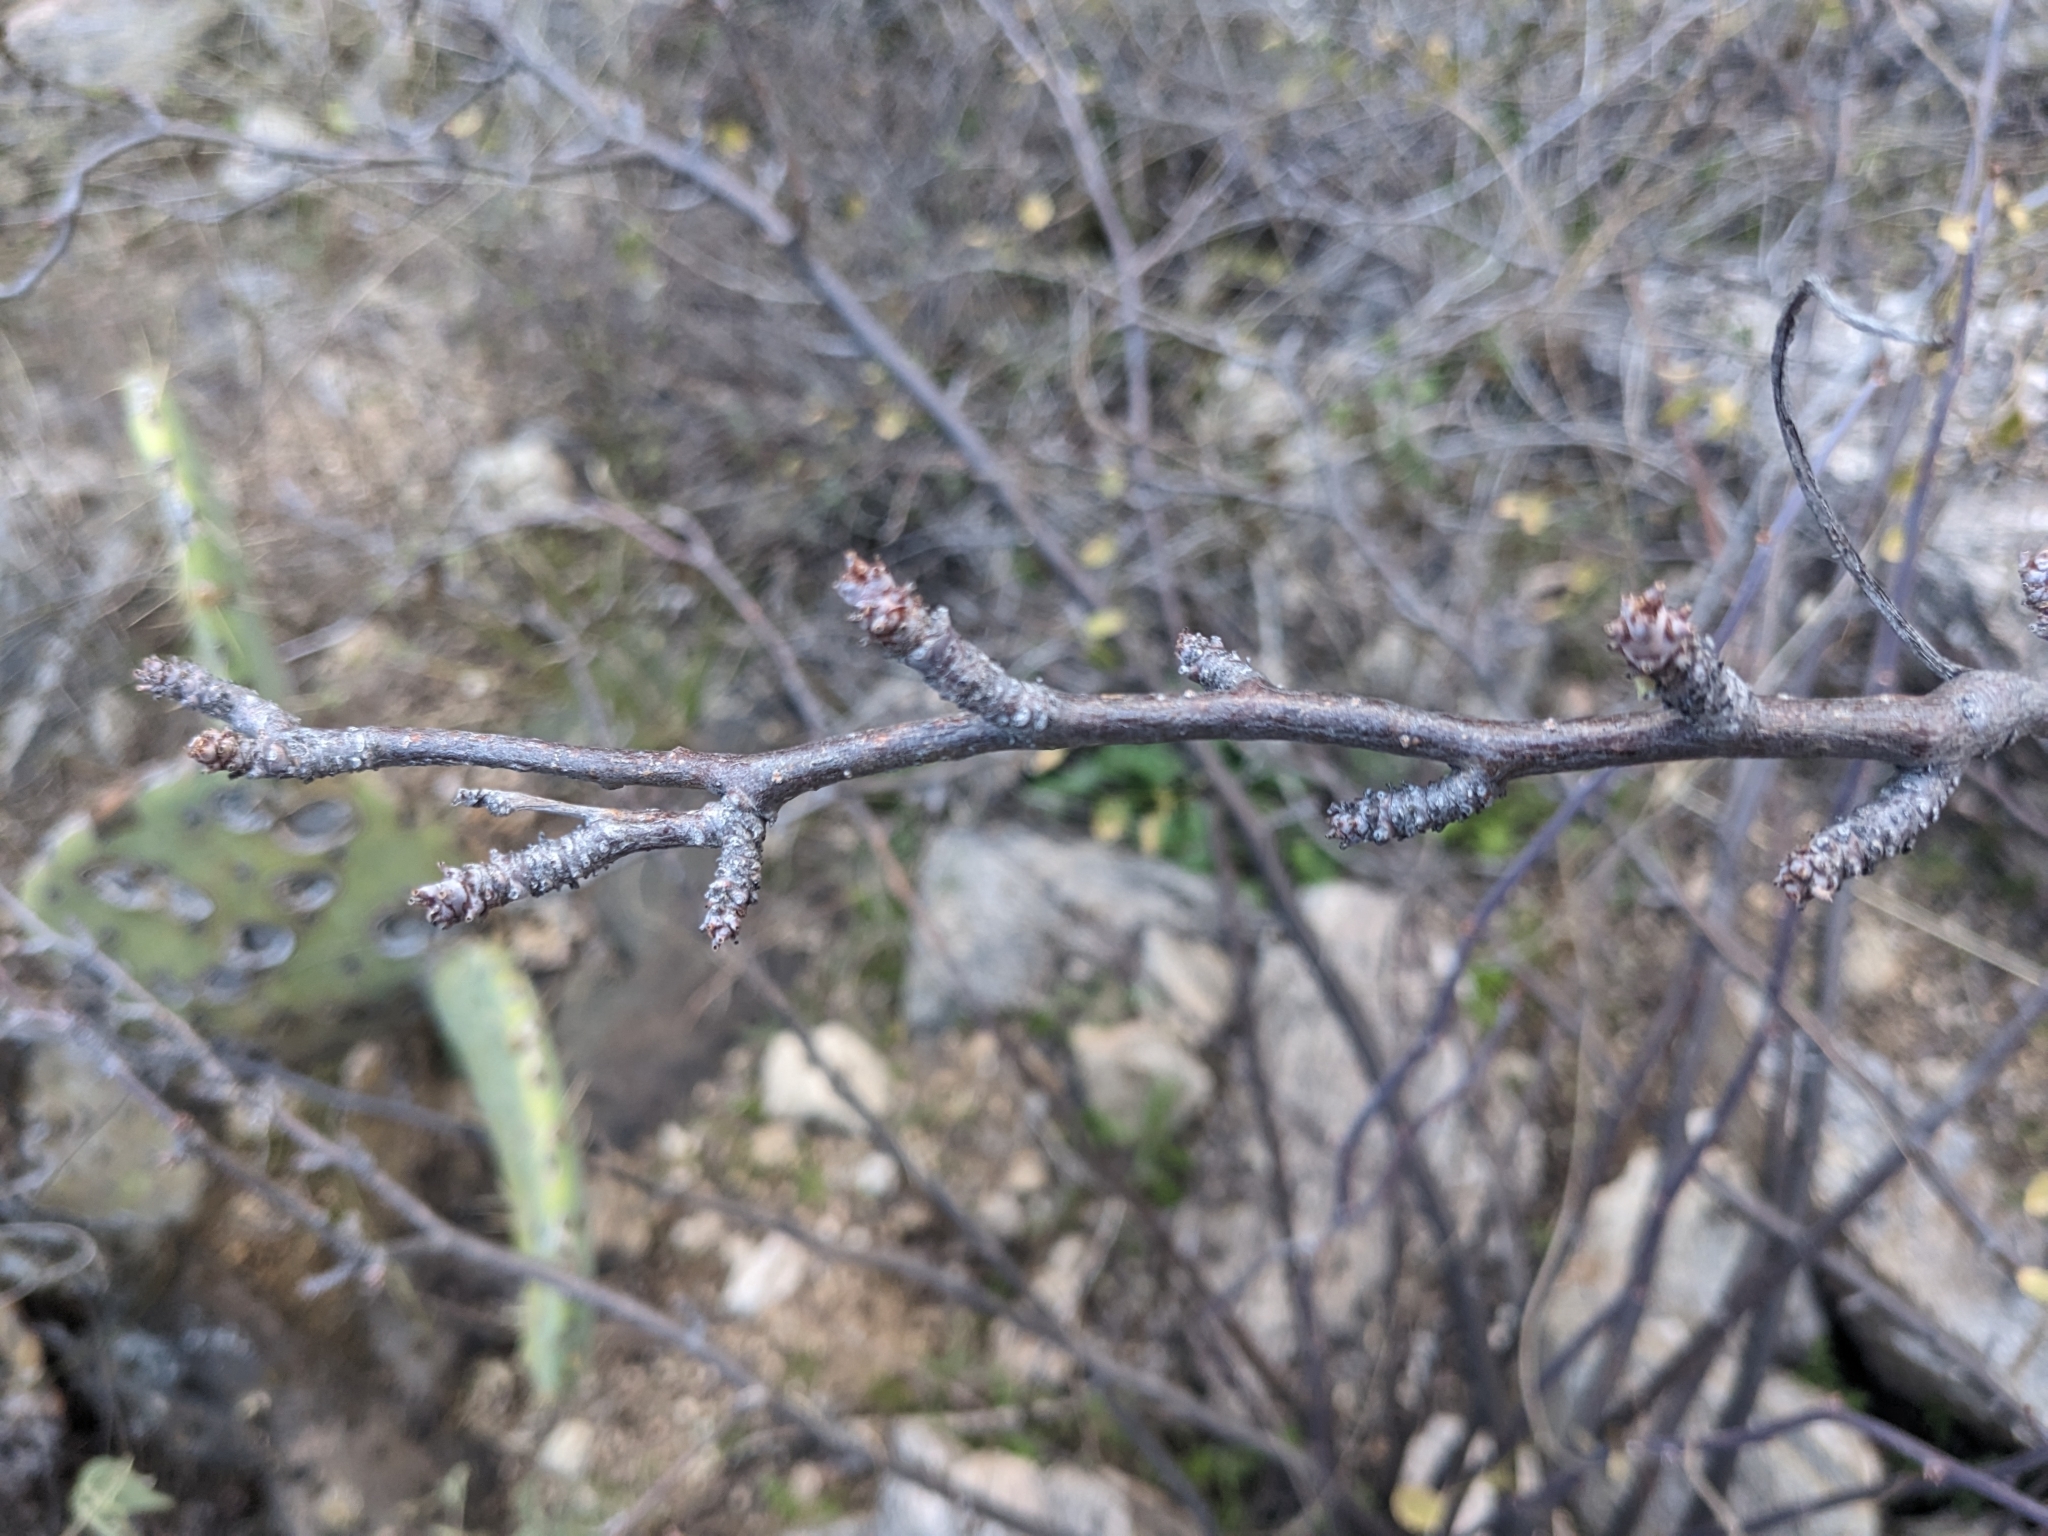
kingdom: Plantae
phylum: Tracheophyta
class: Magnoliopsida
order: Malpighiales
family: Euphorbiaceae
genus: Jatropha
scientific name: Jatropha cardiophylla
